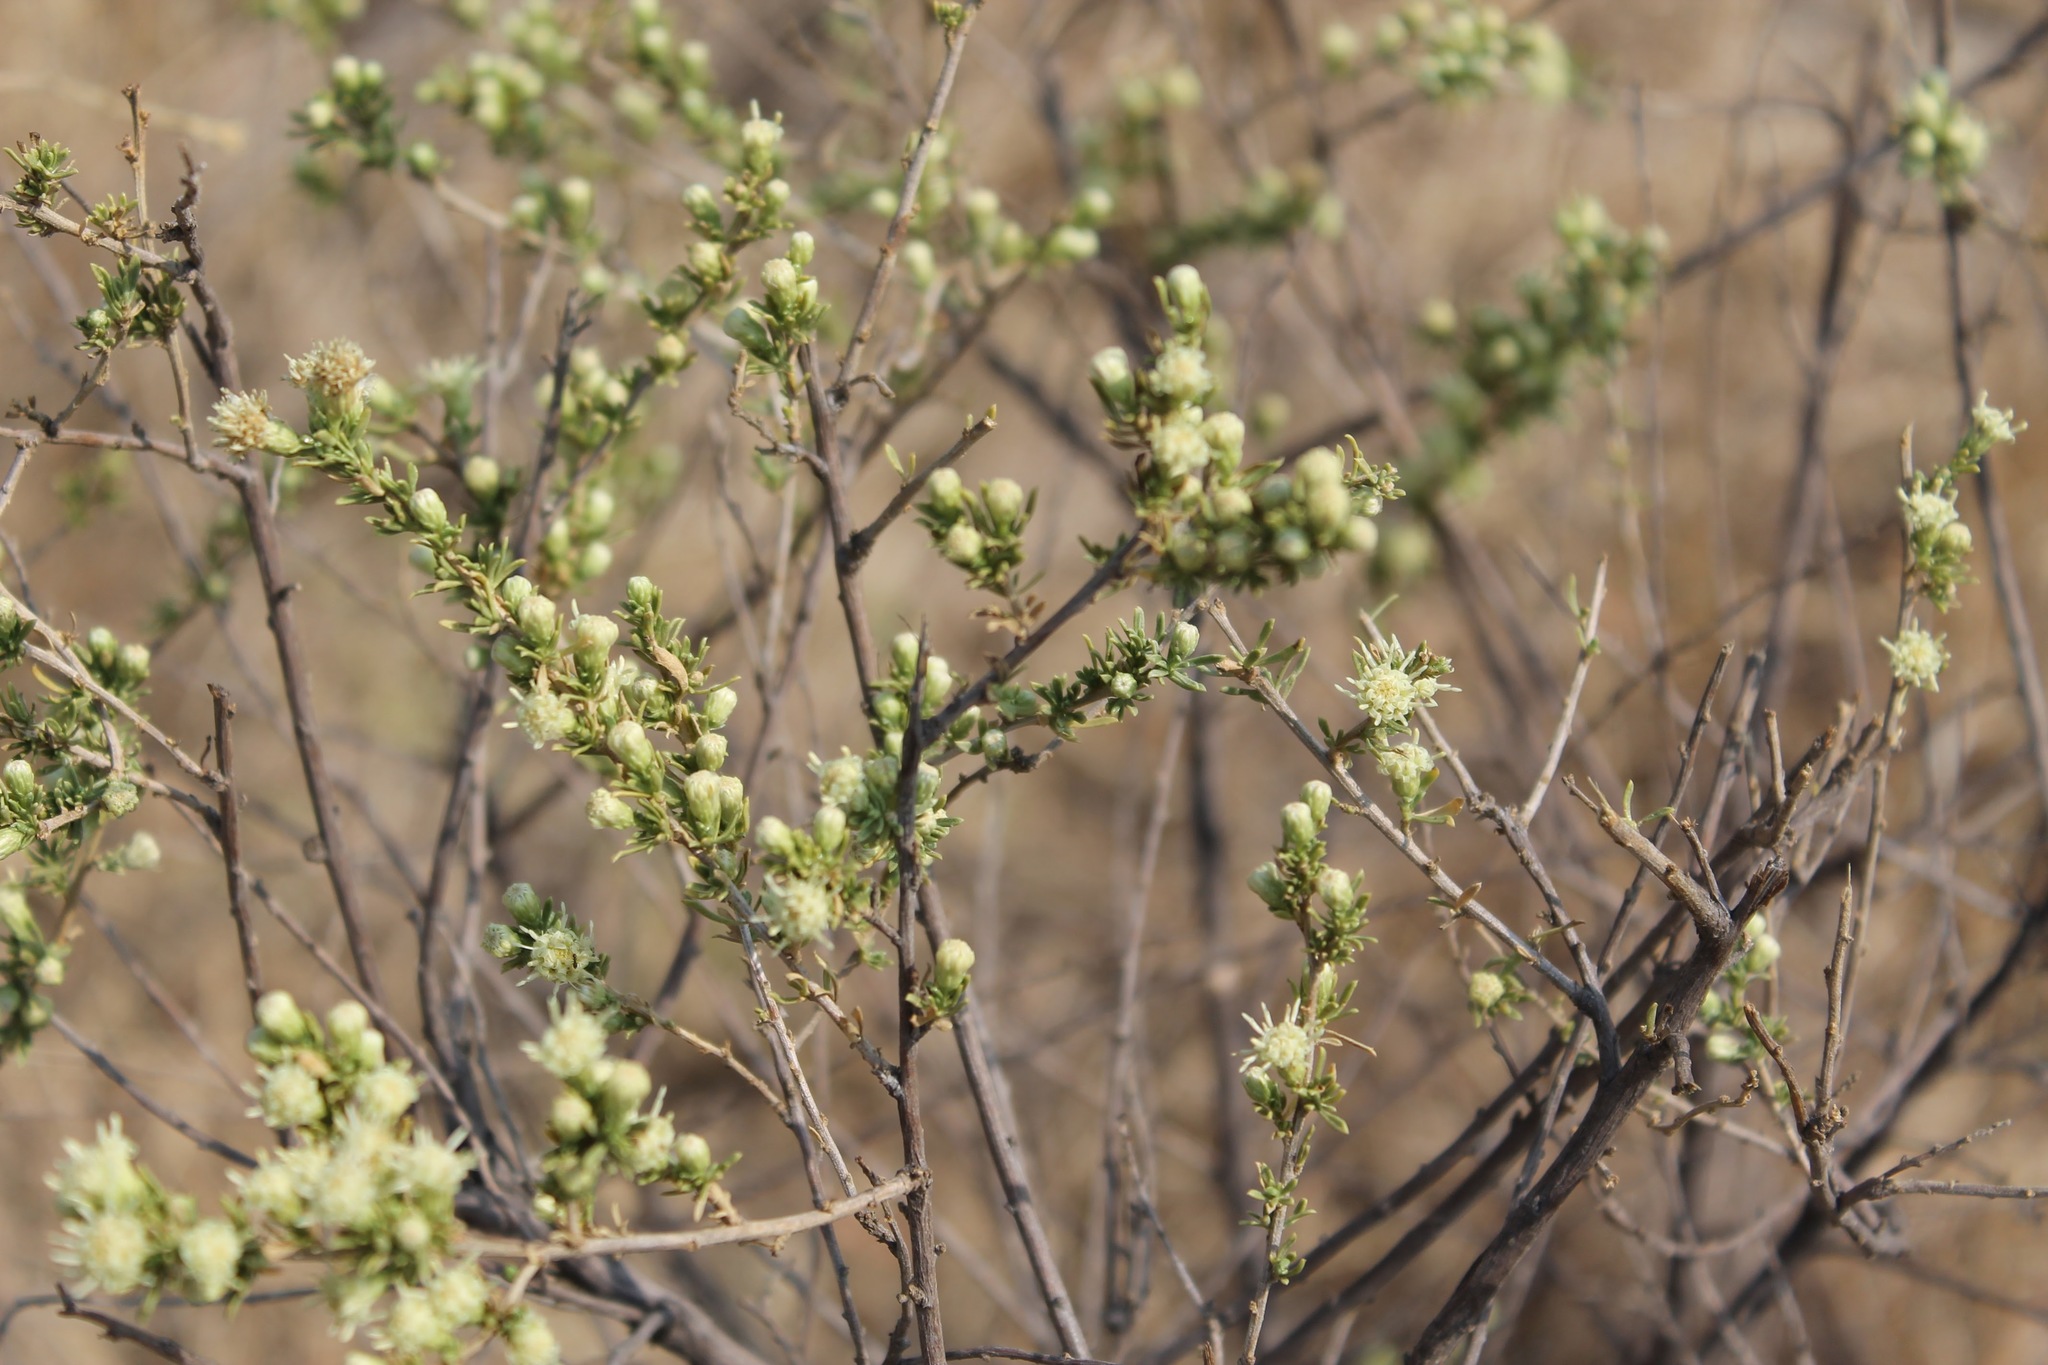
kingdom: Plantae
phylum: Tracheophyta
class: Magnoliopsida
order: Asterales
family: Asteraceae
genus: Baccharis
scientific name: Baccharis pteronioides
